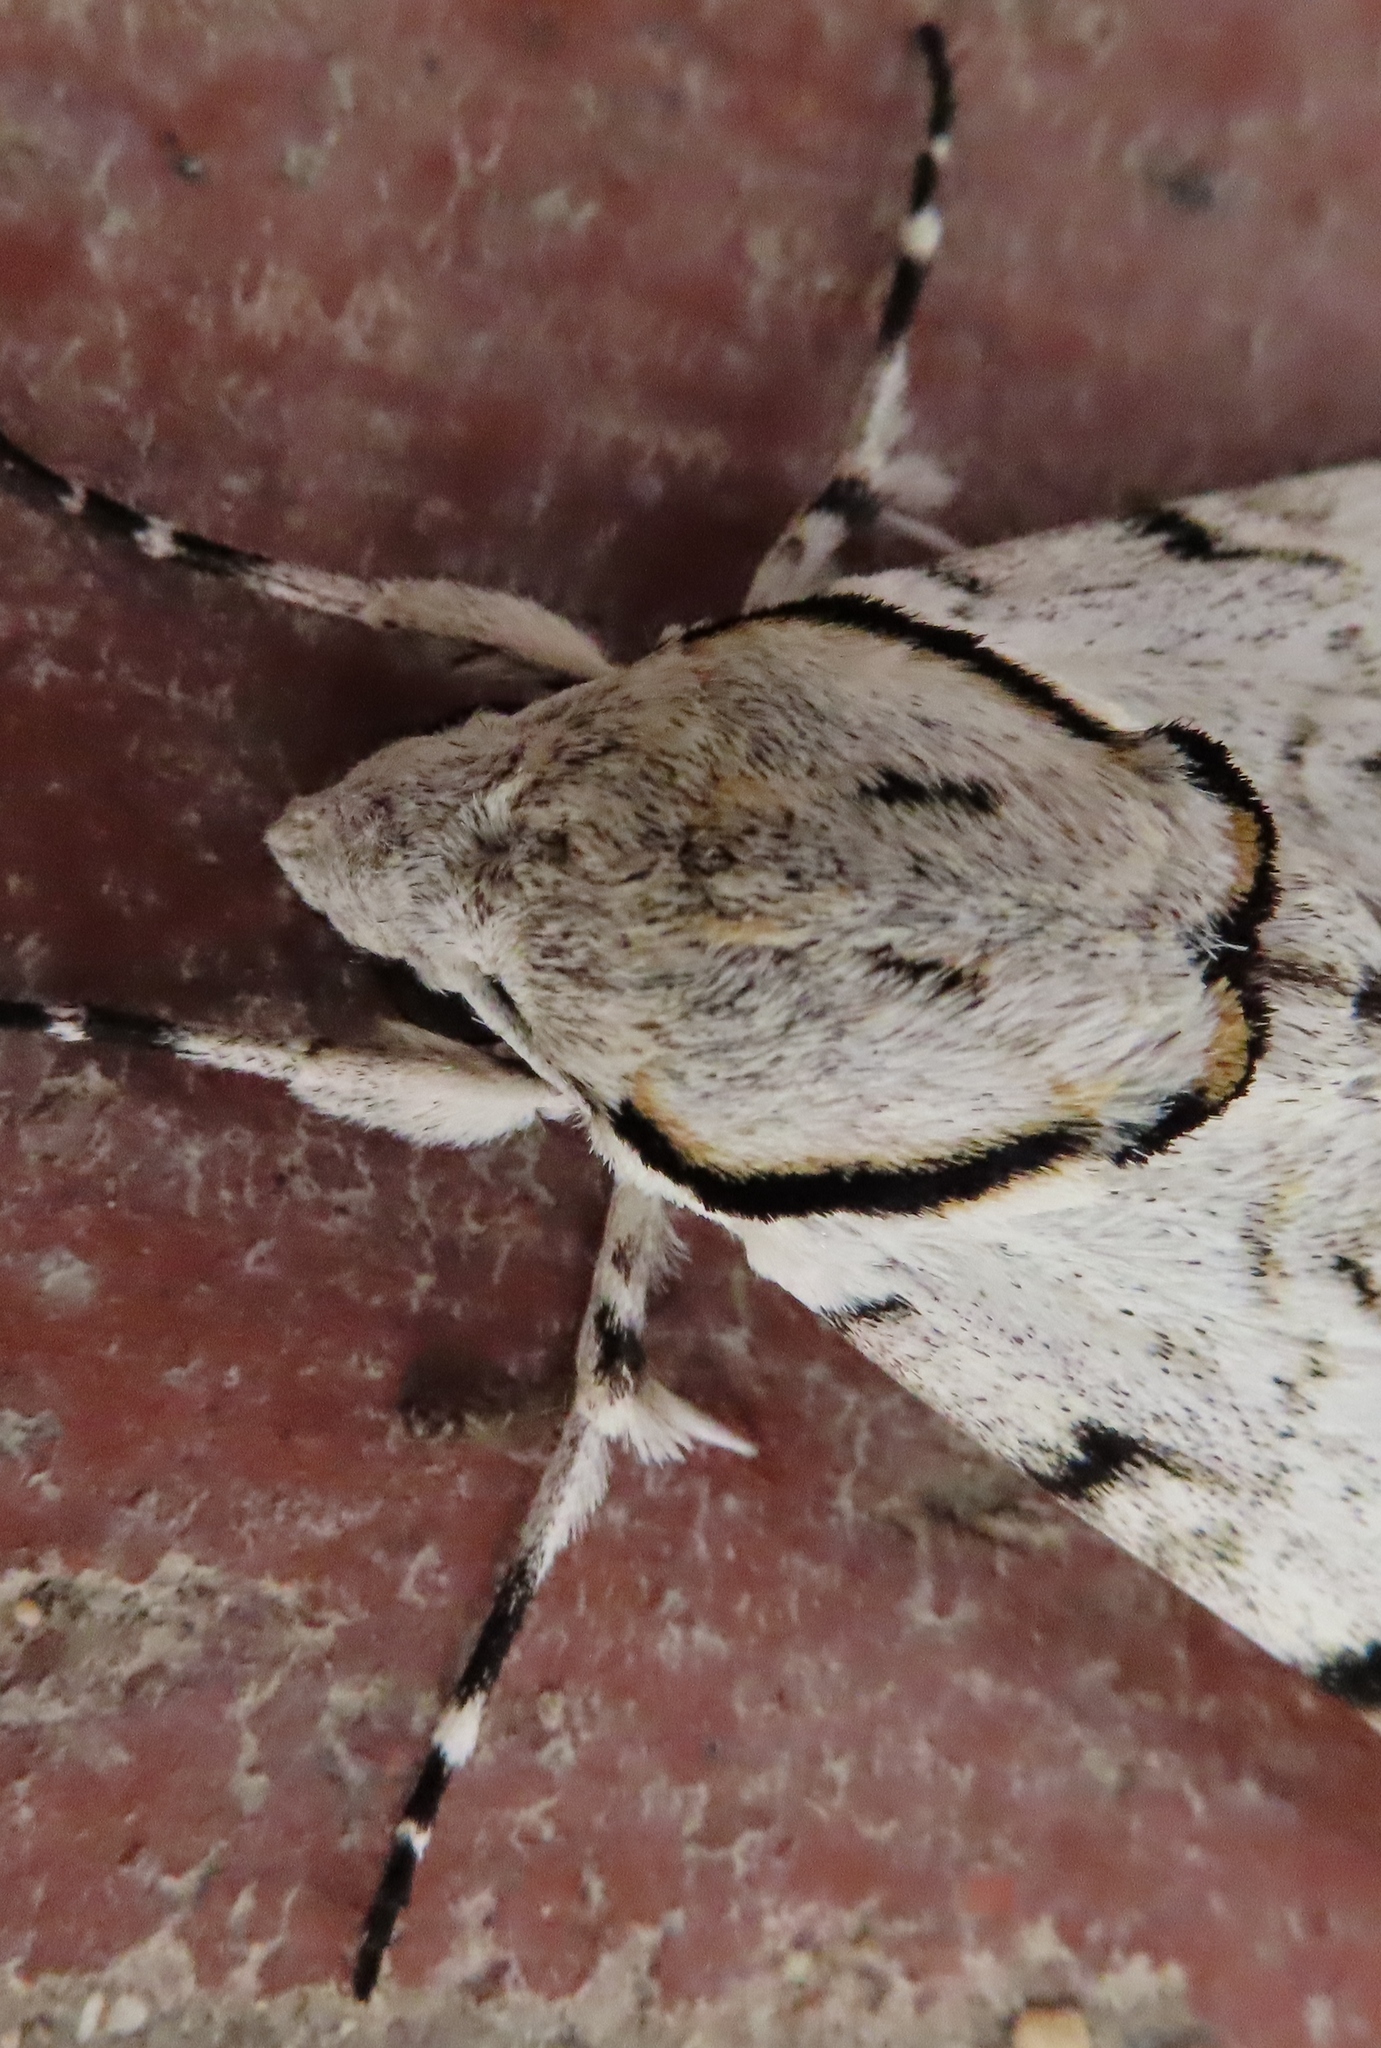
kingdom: Animalia
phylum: Arthropoda
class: Insecta
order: Lepidoptera
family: Sphingidae
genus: Macropoliana
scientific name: Macropoliana natalensis
